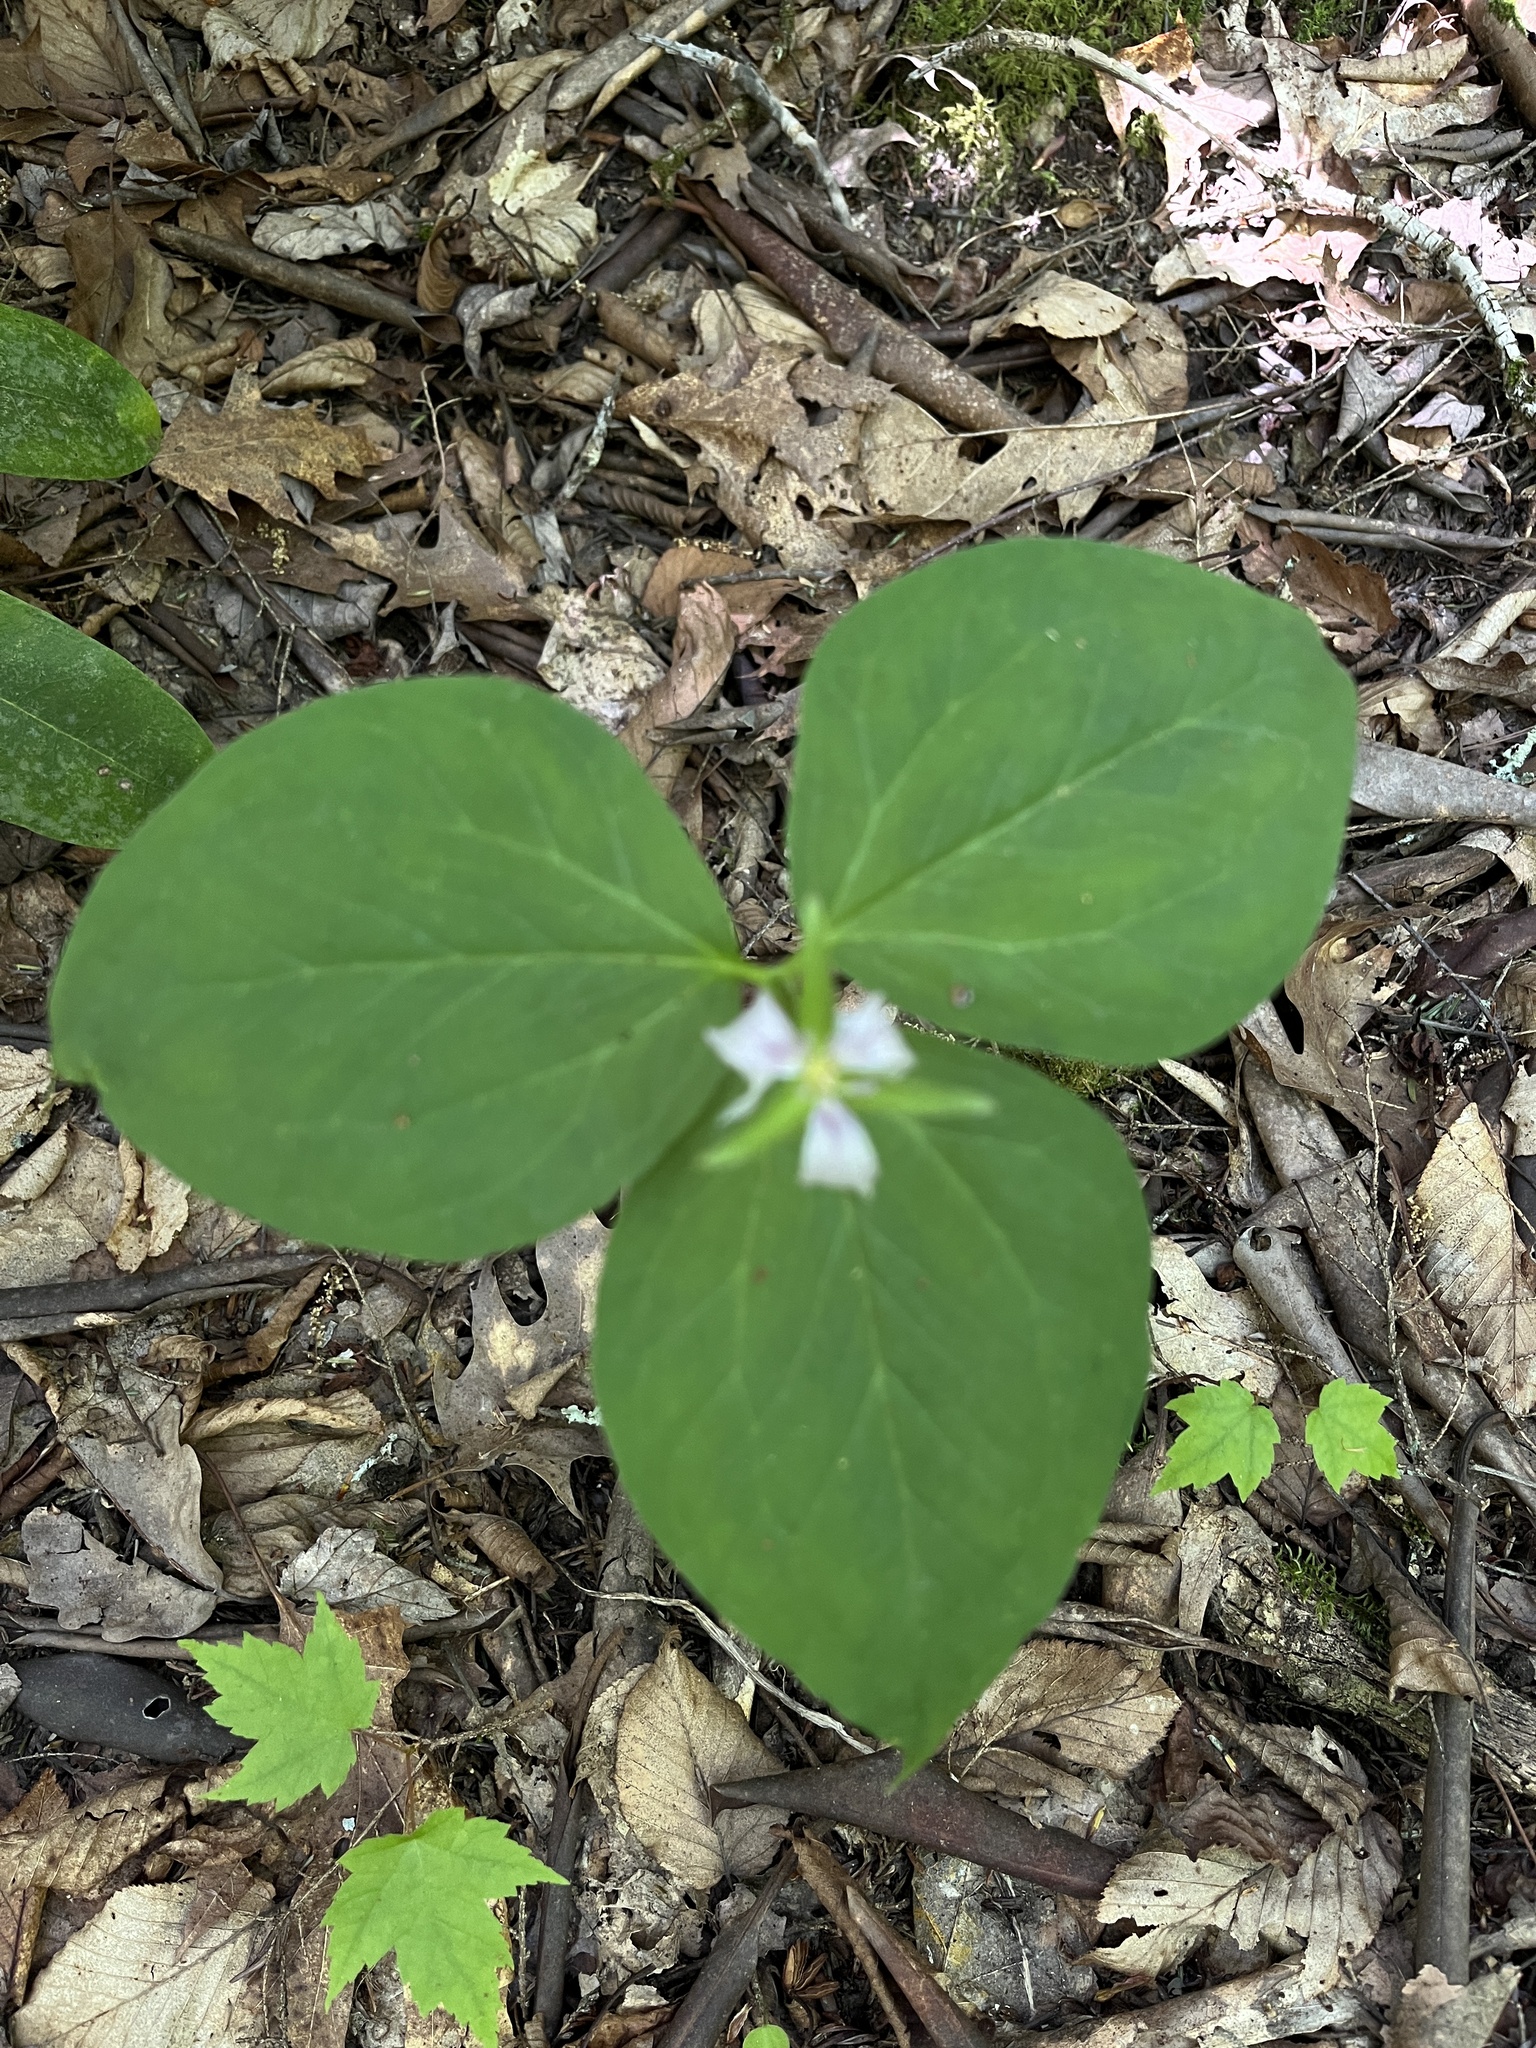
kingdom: Plantae
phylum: Tracheophyta
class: Liliopsida
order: Liliales
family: Melanthiaceae
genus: Trillium
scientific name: Trillium undulatum
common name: Paint trillium
